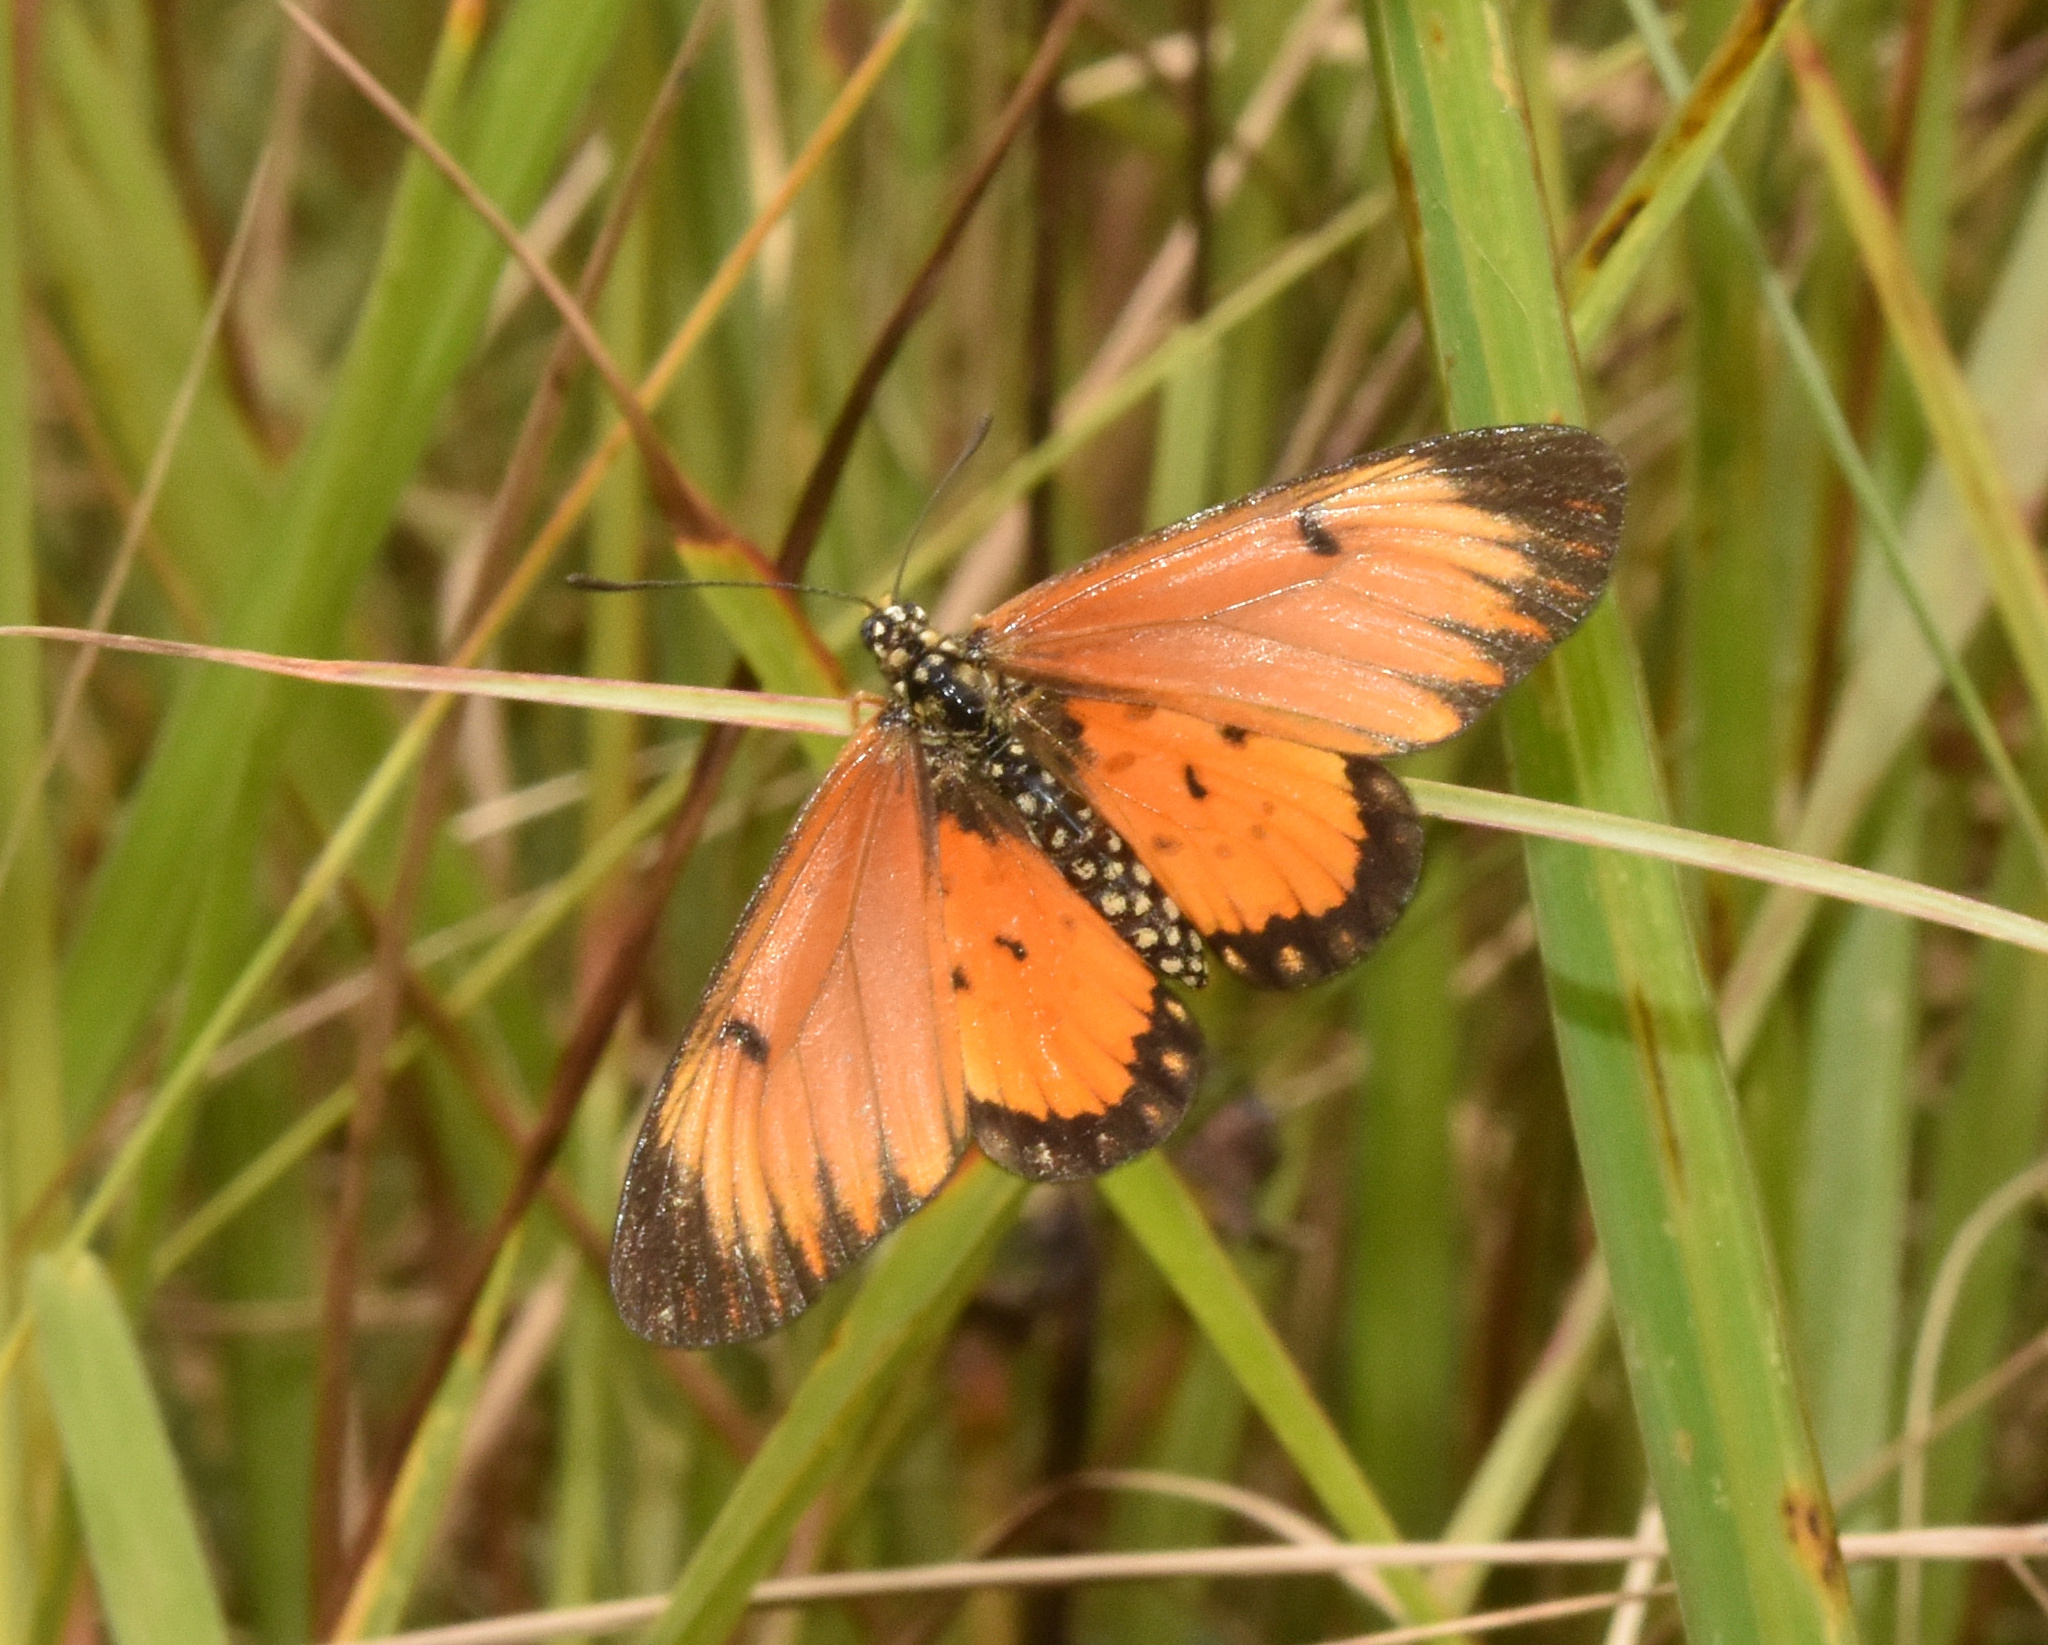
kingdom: Animalia
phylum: Arthropoda
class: Insecta
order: Lepidoptera
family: Nymphalidae
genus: Acraea
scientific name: Acraea Telchinia serena
